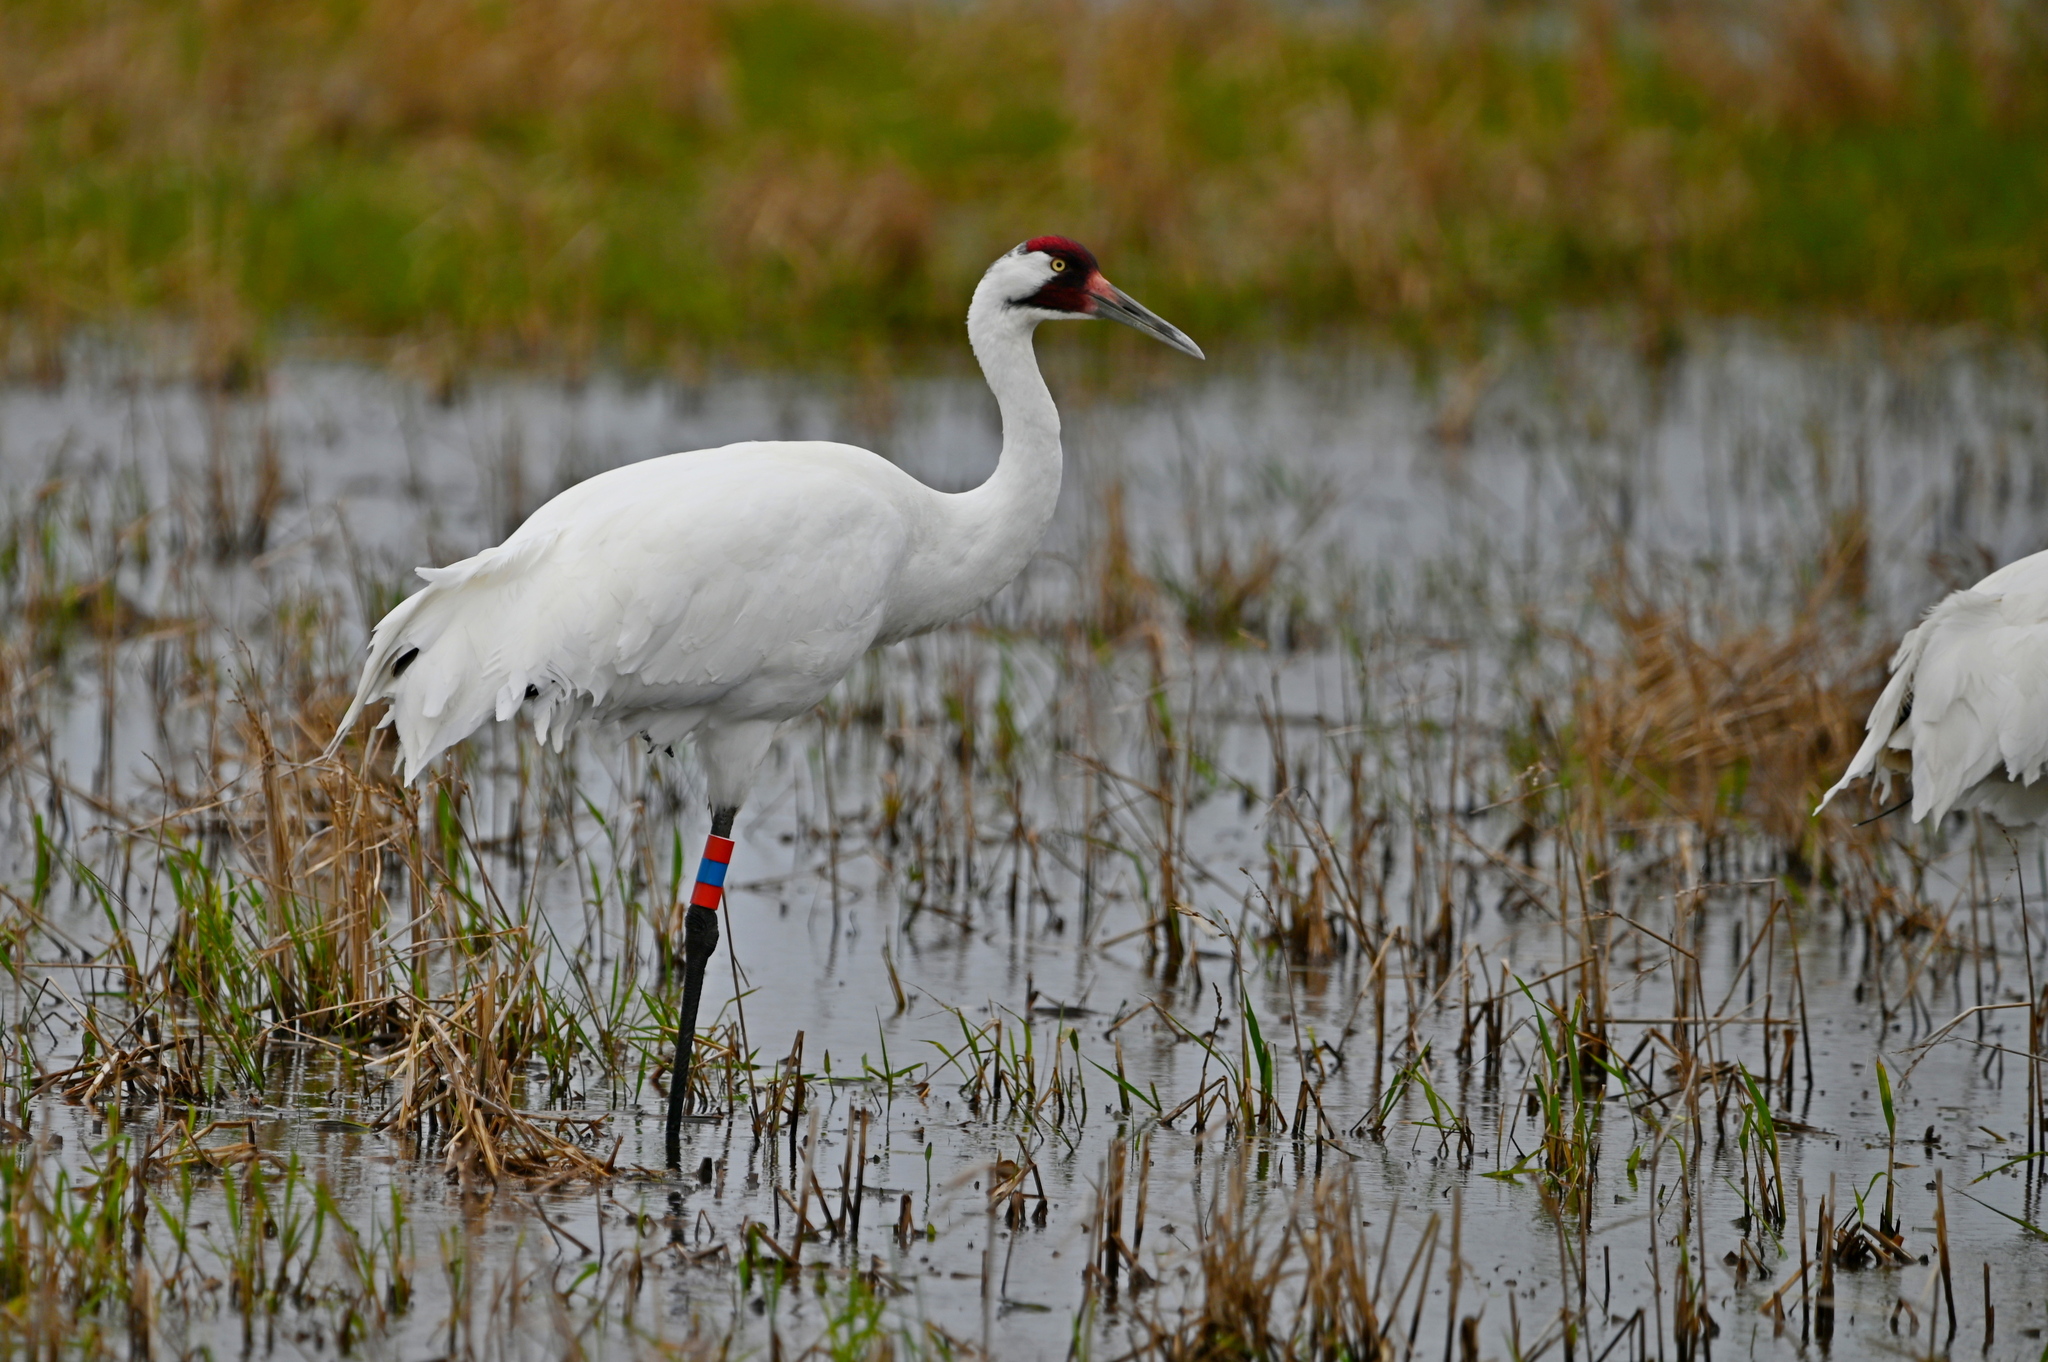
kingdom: Animalia
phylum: Chordata
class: Aves
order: Gruiformes
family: Gruidae
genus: Grus
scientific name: Grus americana
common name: Whooping crane
